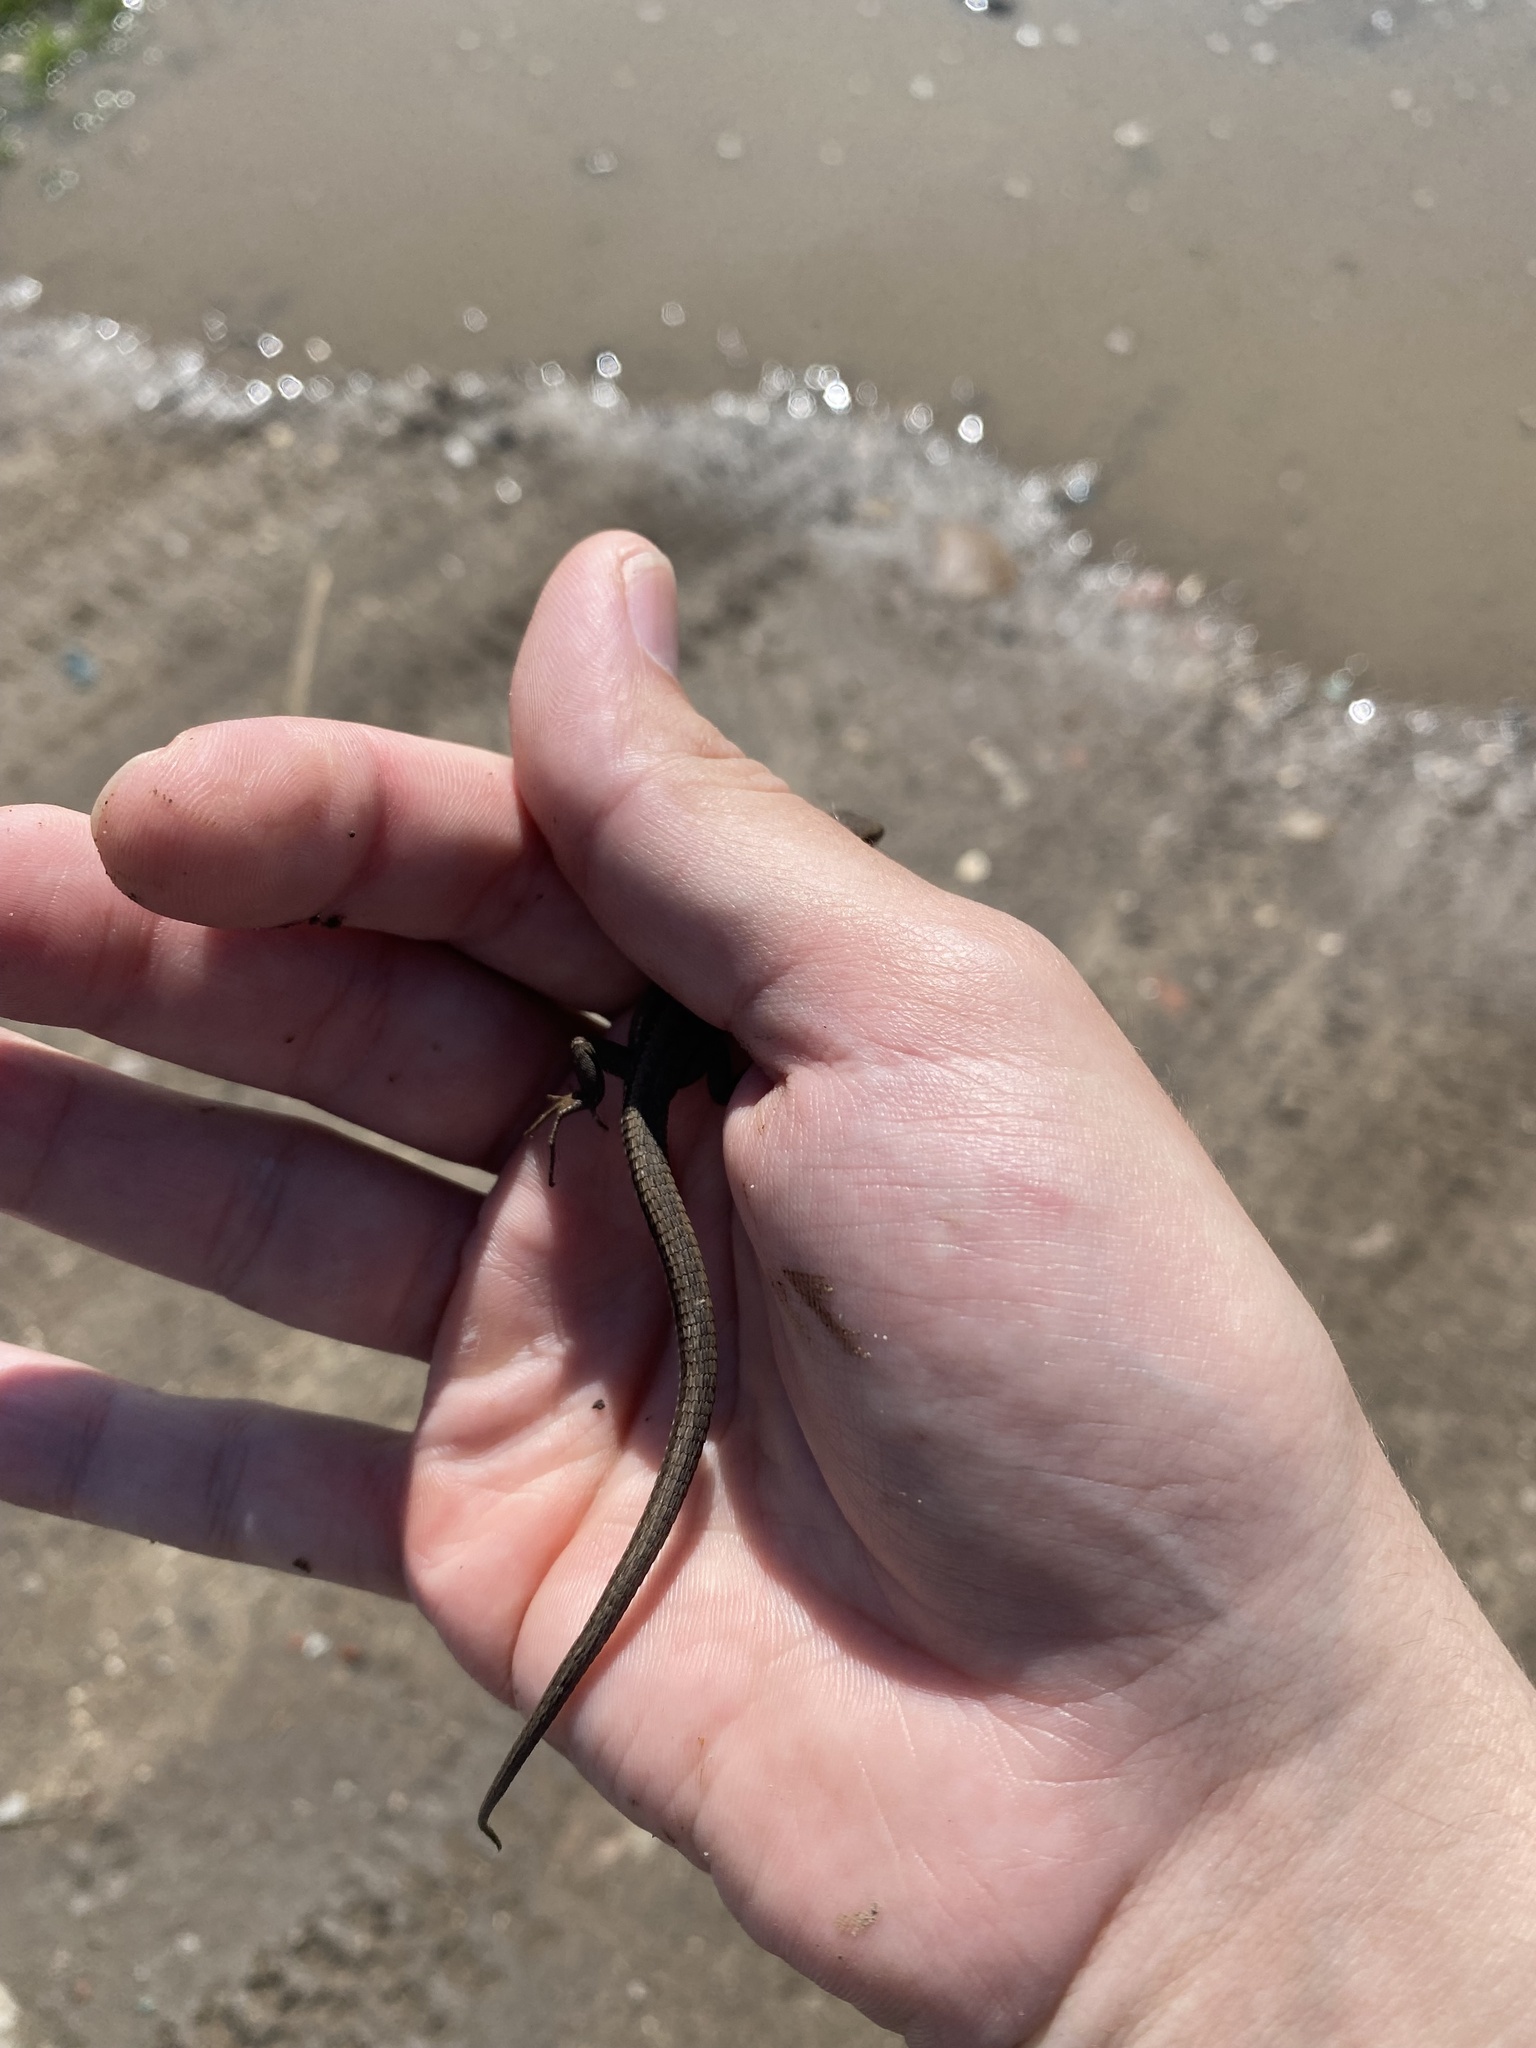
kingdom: Animalia
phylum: Chordata
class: Squamata
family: Lacertidae
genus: Darevskia
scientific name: Darevskia praticola
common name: Meadow lizard
